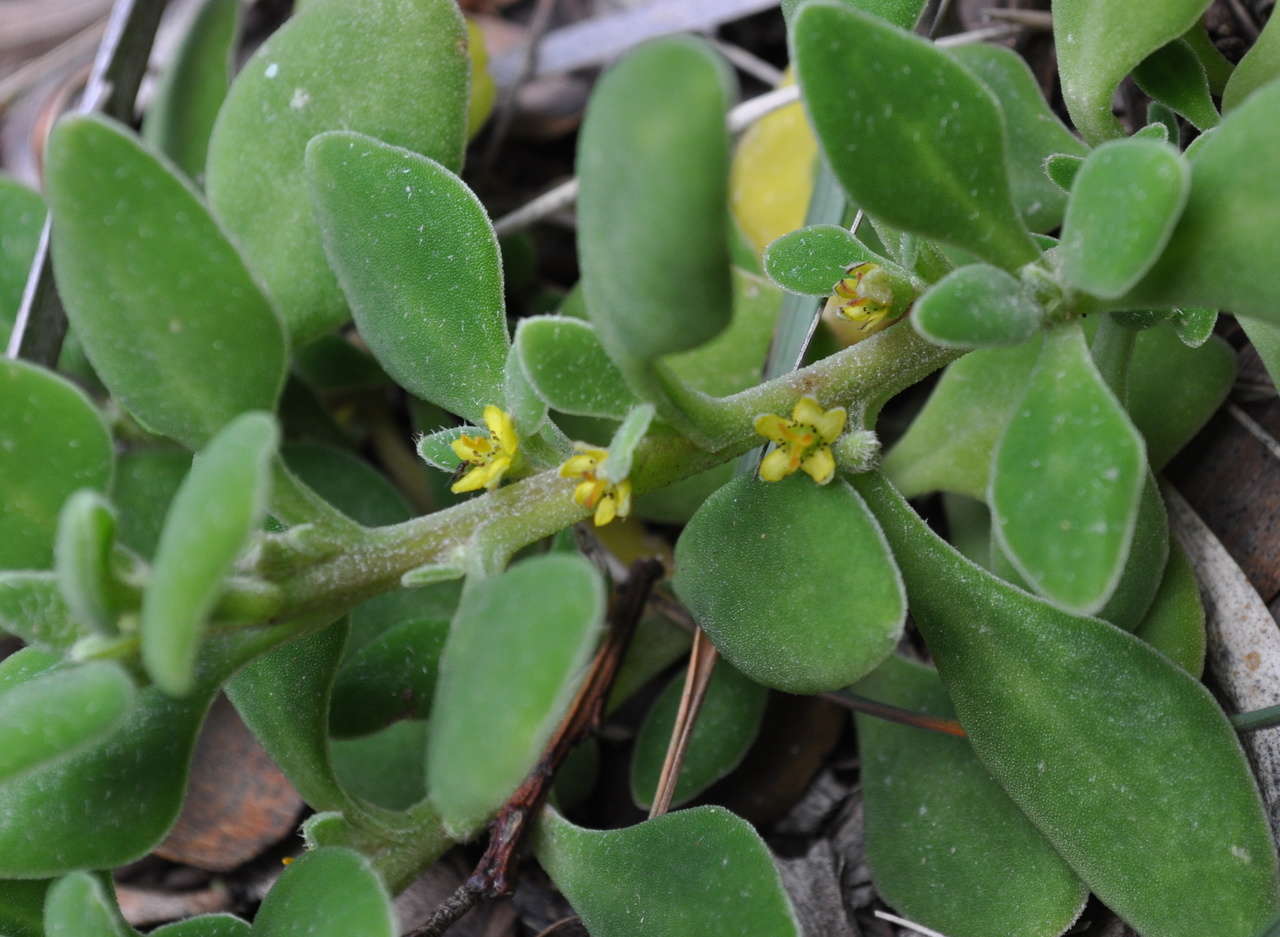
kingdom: Plantae
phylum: Tracheophyta
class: Magnoliopsida
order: Caryophyllales
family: Aizoaceae
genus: Tetragonia
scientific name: Tetragonia implexicoma
